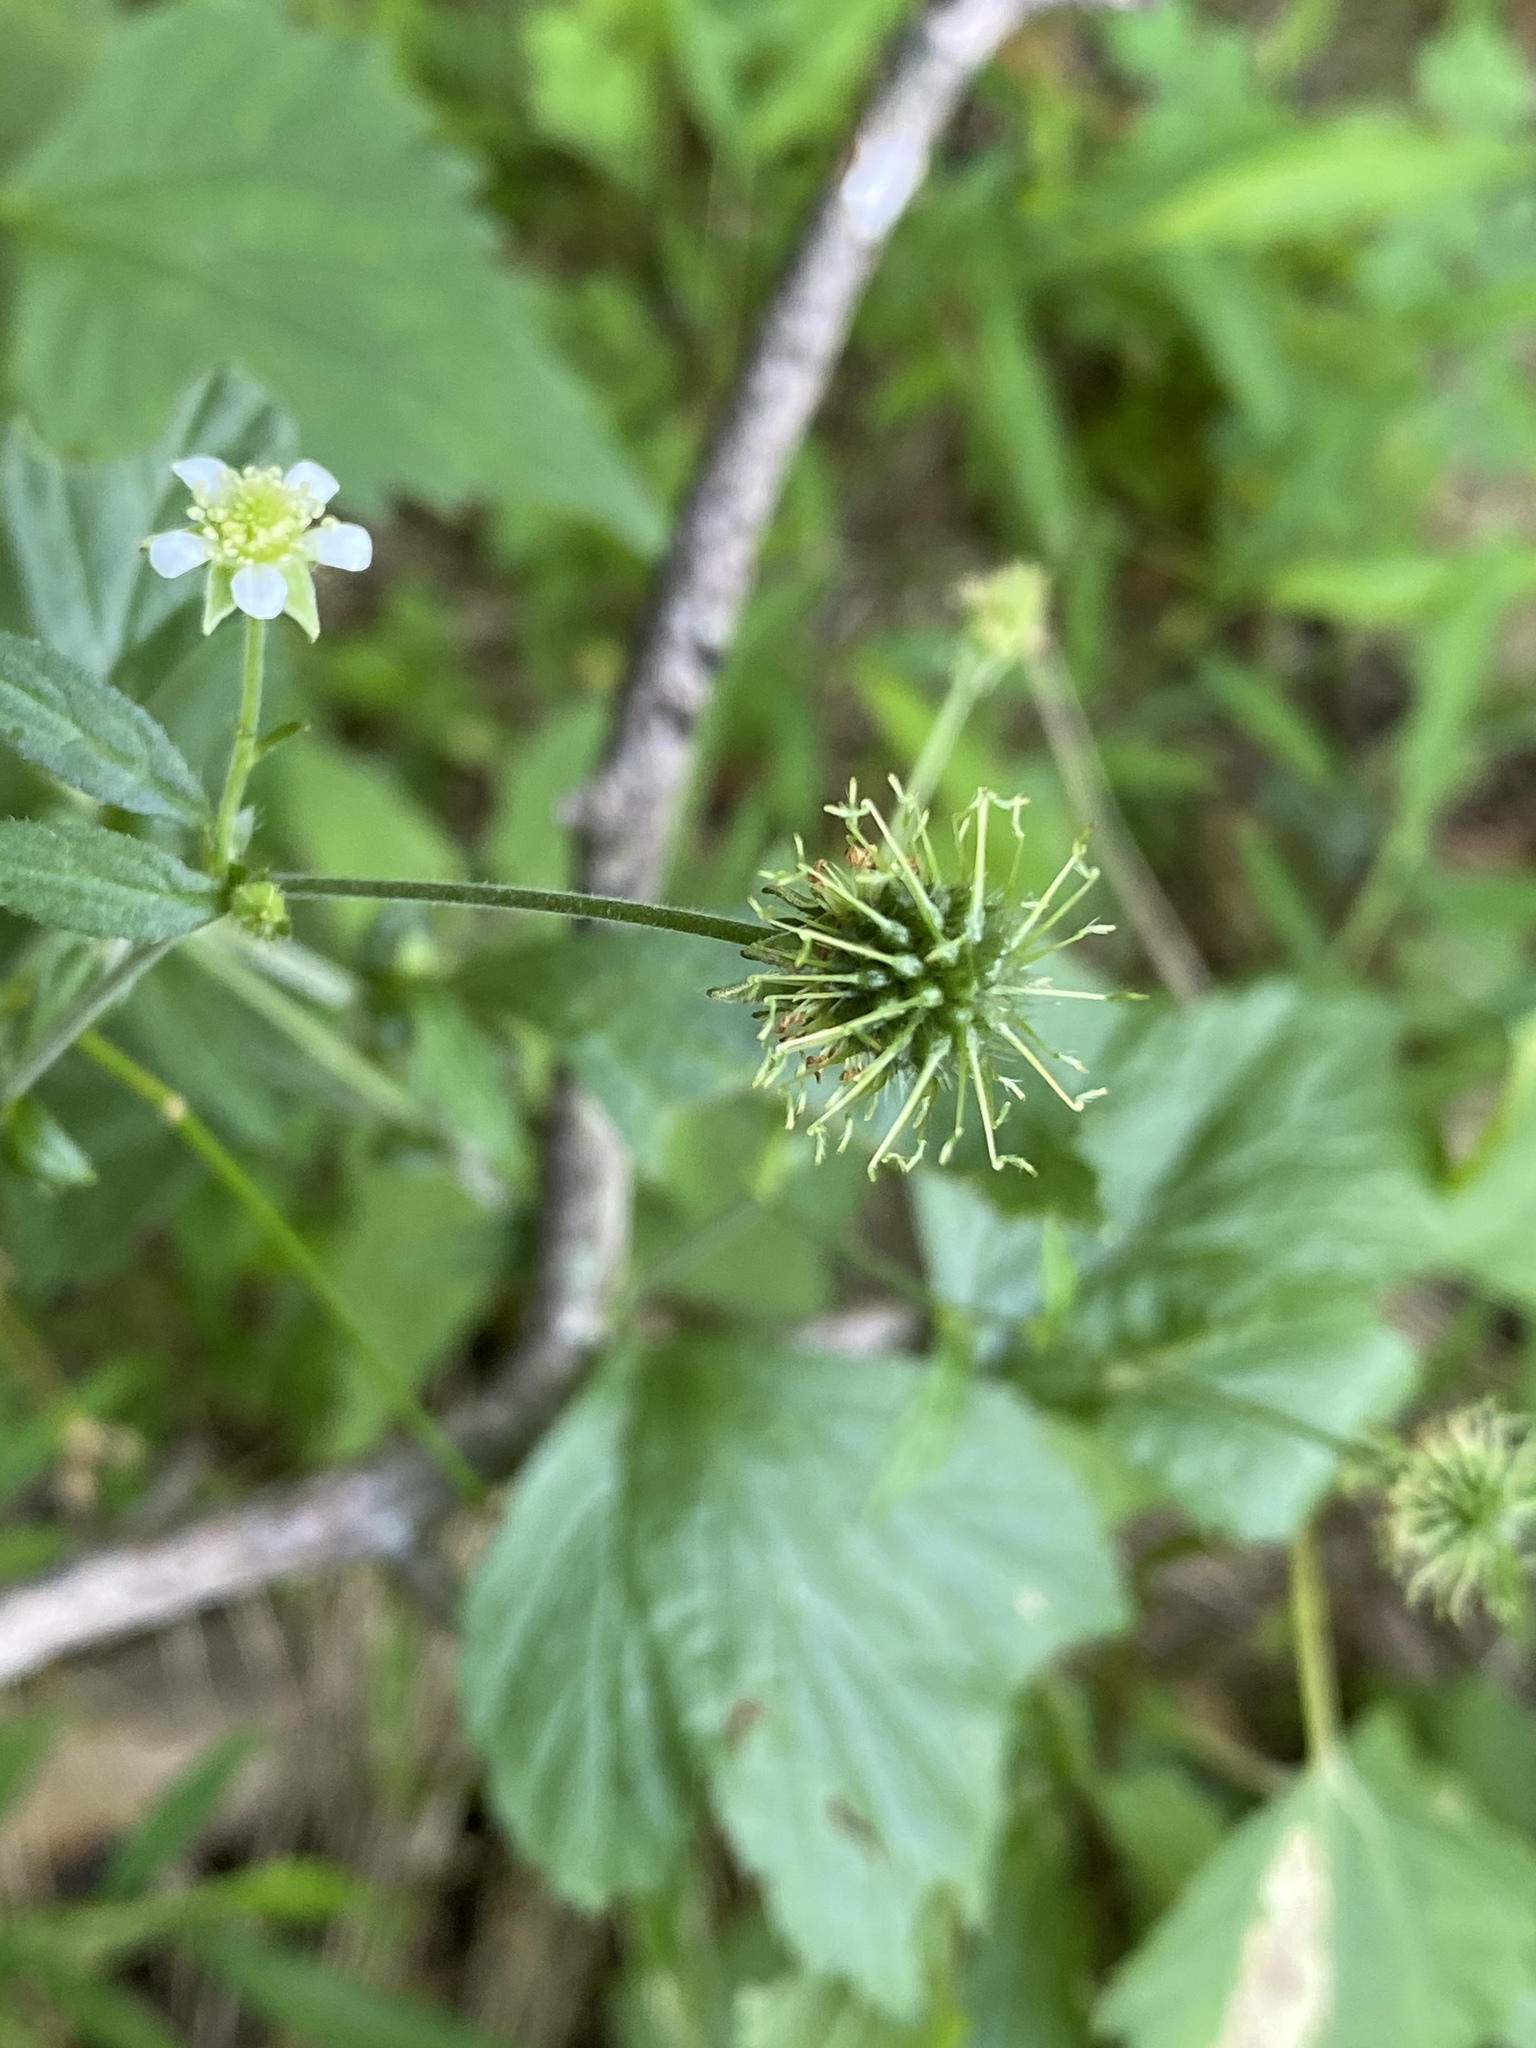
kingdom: Plantae
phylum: Tracheophyta
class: Magnoliopsida
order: Rosales
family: Rosaceae
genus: Geum
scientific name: Geum canadense
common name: White avens
